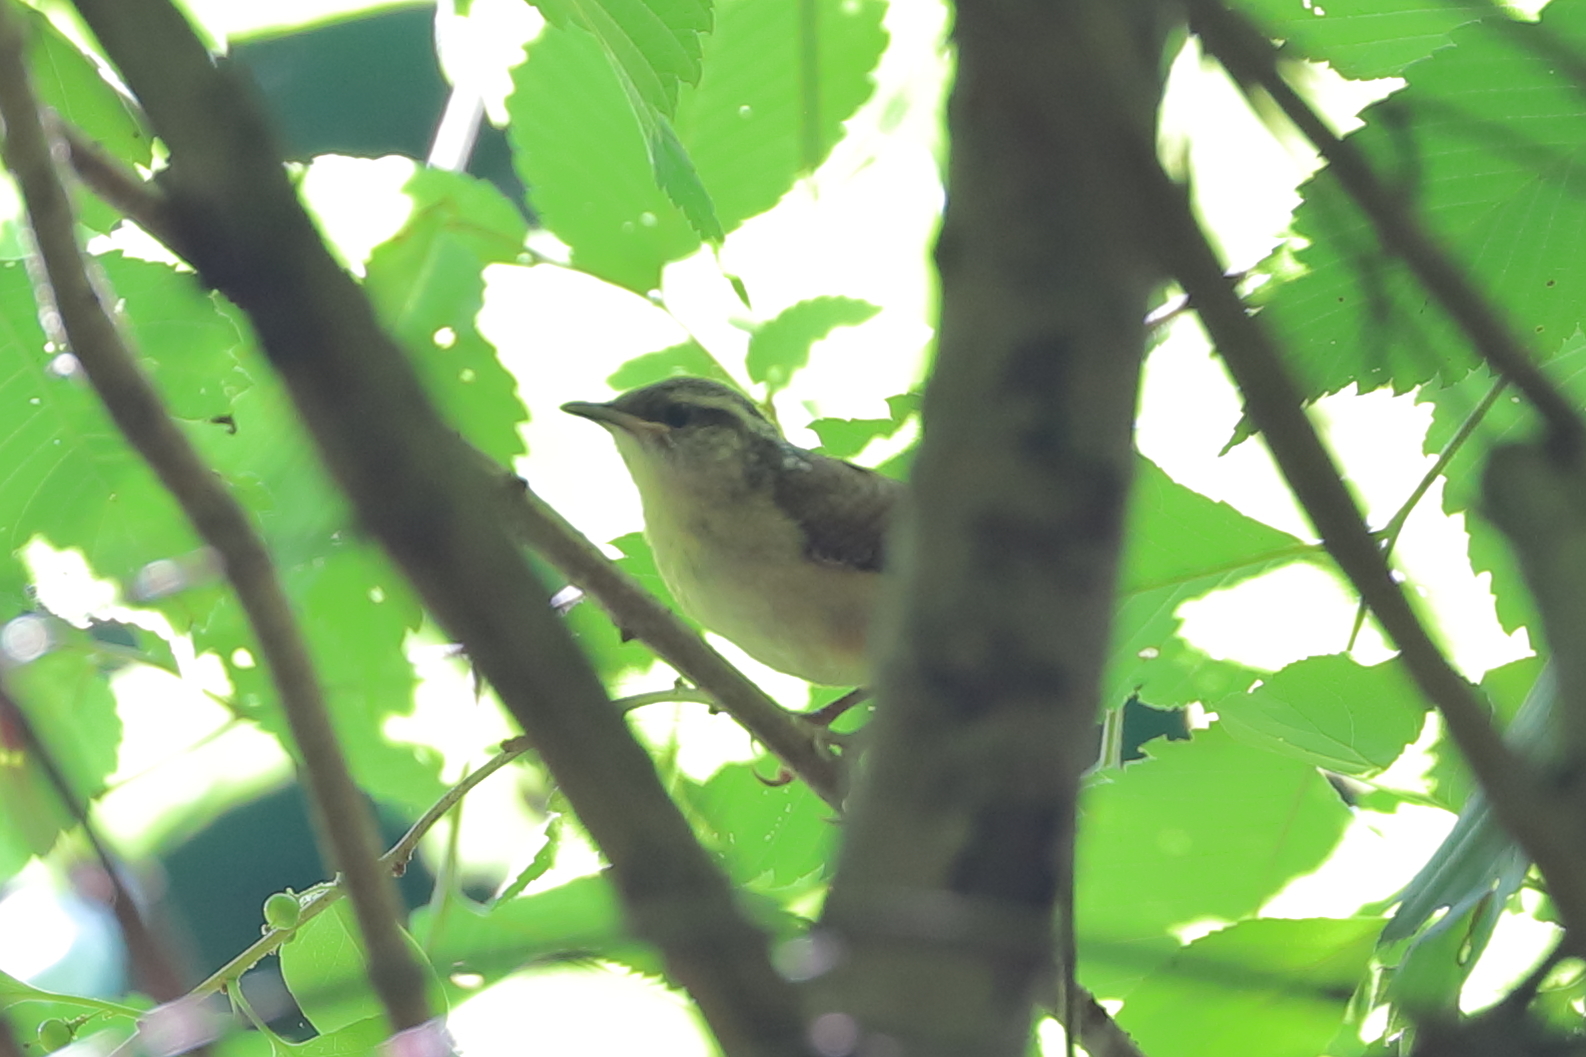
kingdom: Animalia
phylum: Chordata
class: Aves
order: Passeriformes
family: Troglodytidae
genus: Thryothorus
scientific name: Thryothorus ludovicianus
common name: Carolina wren
